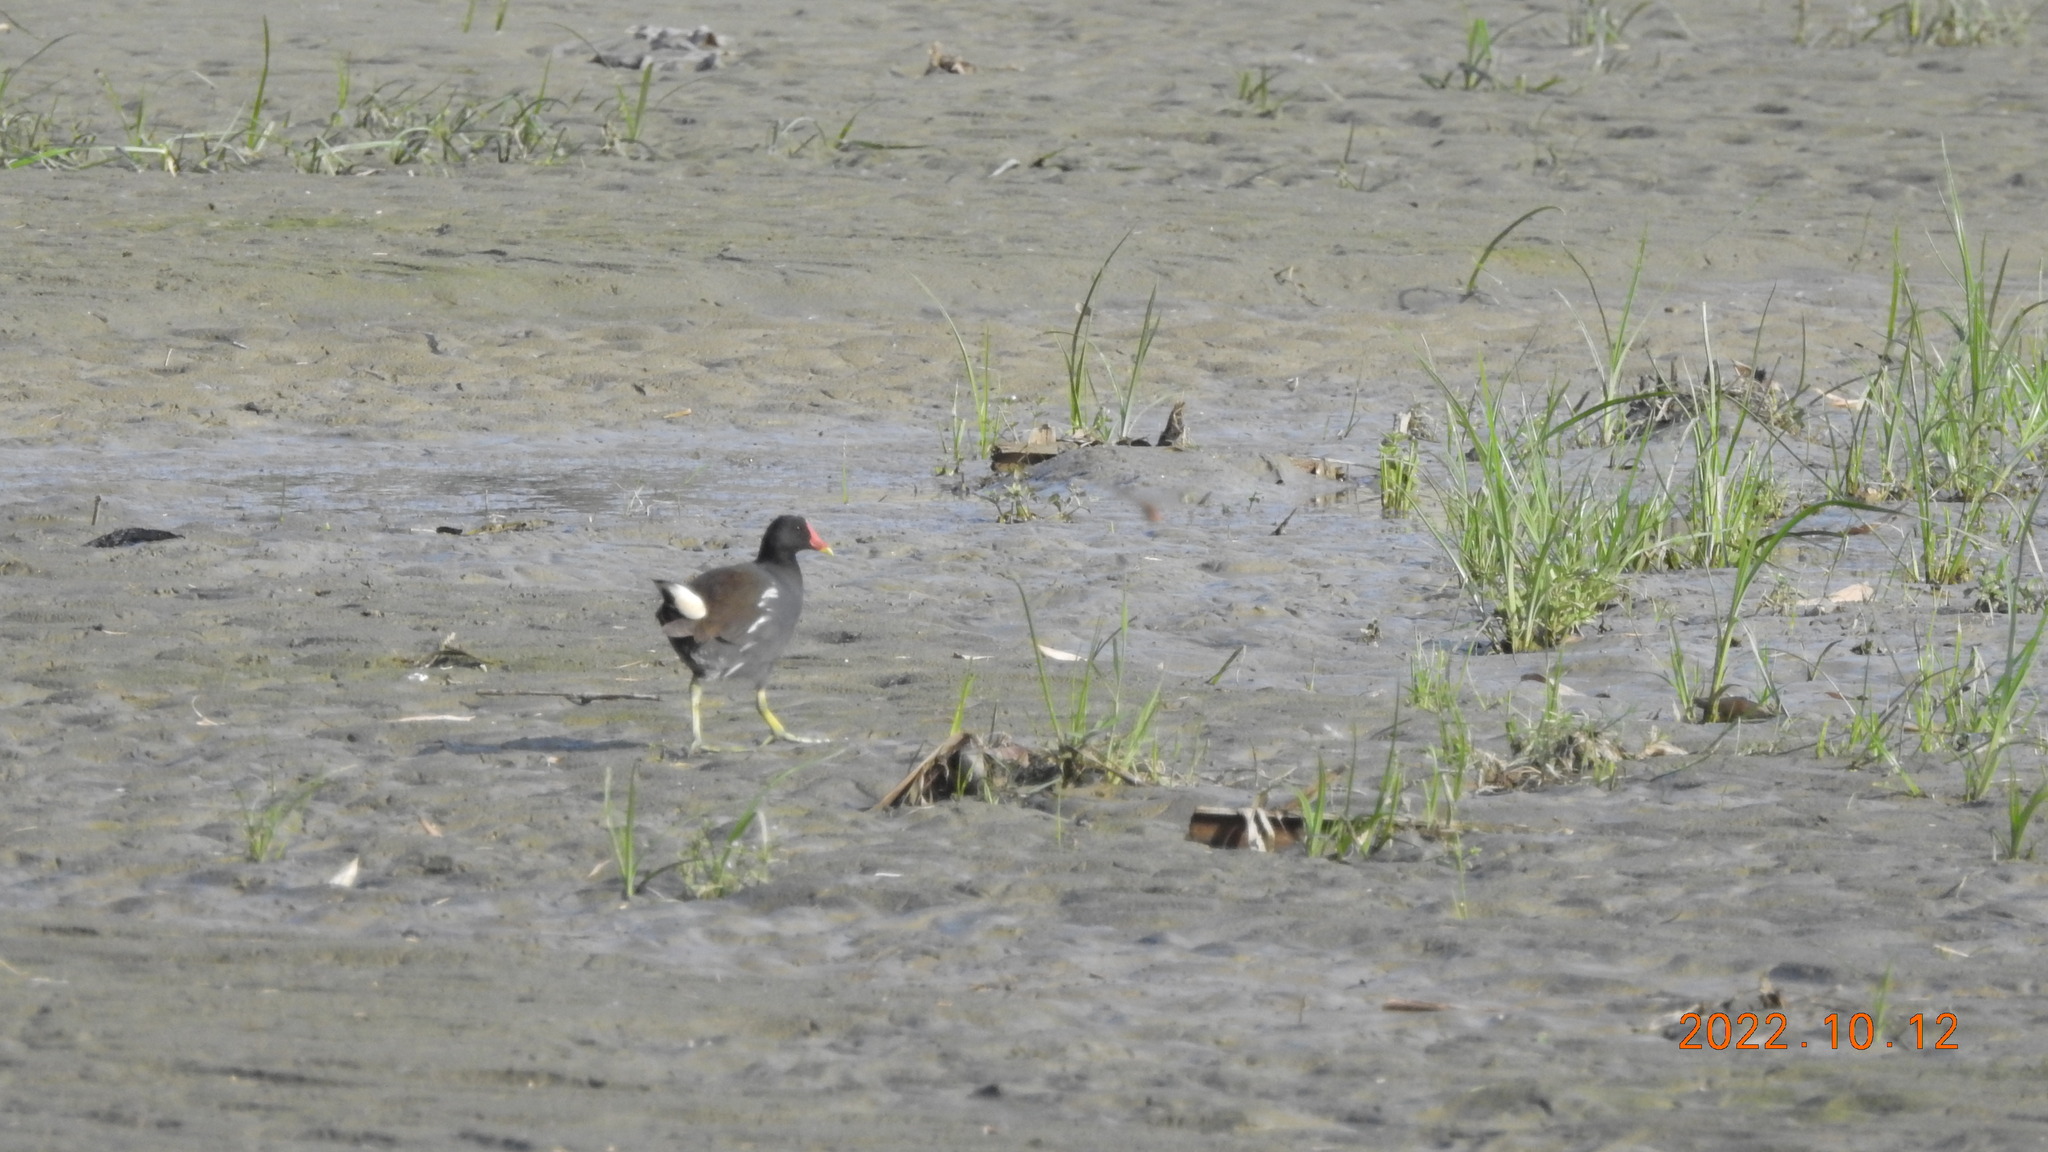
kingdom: Animalia
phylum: Chordata
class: Aves
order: Gruiformes
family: Rallidae
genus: Gallinula
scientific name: Gallinula chloropus
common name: Common moorhen
